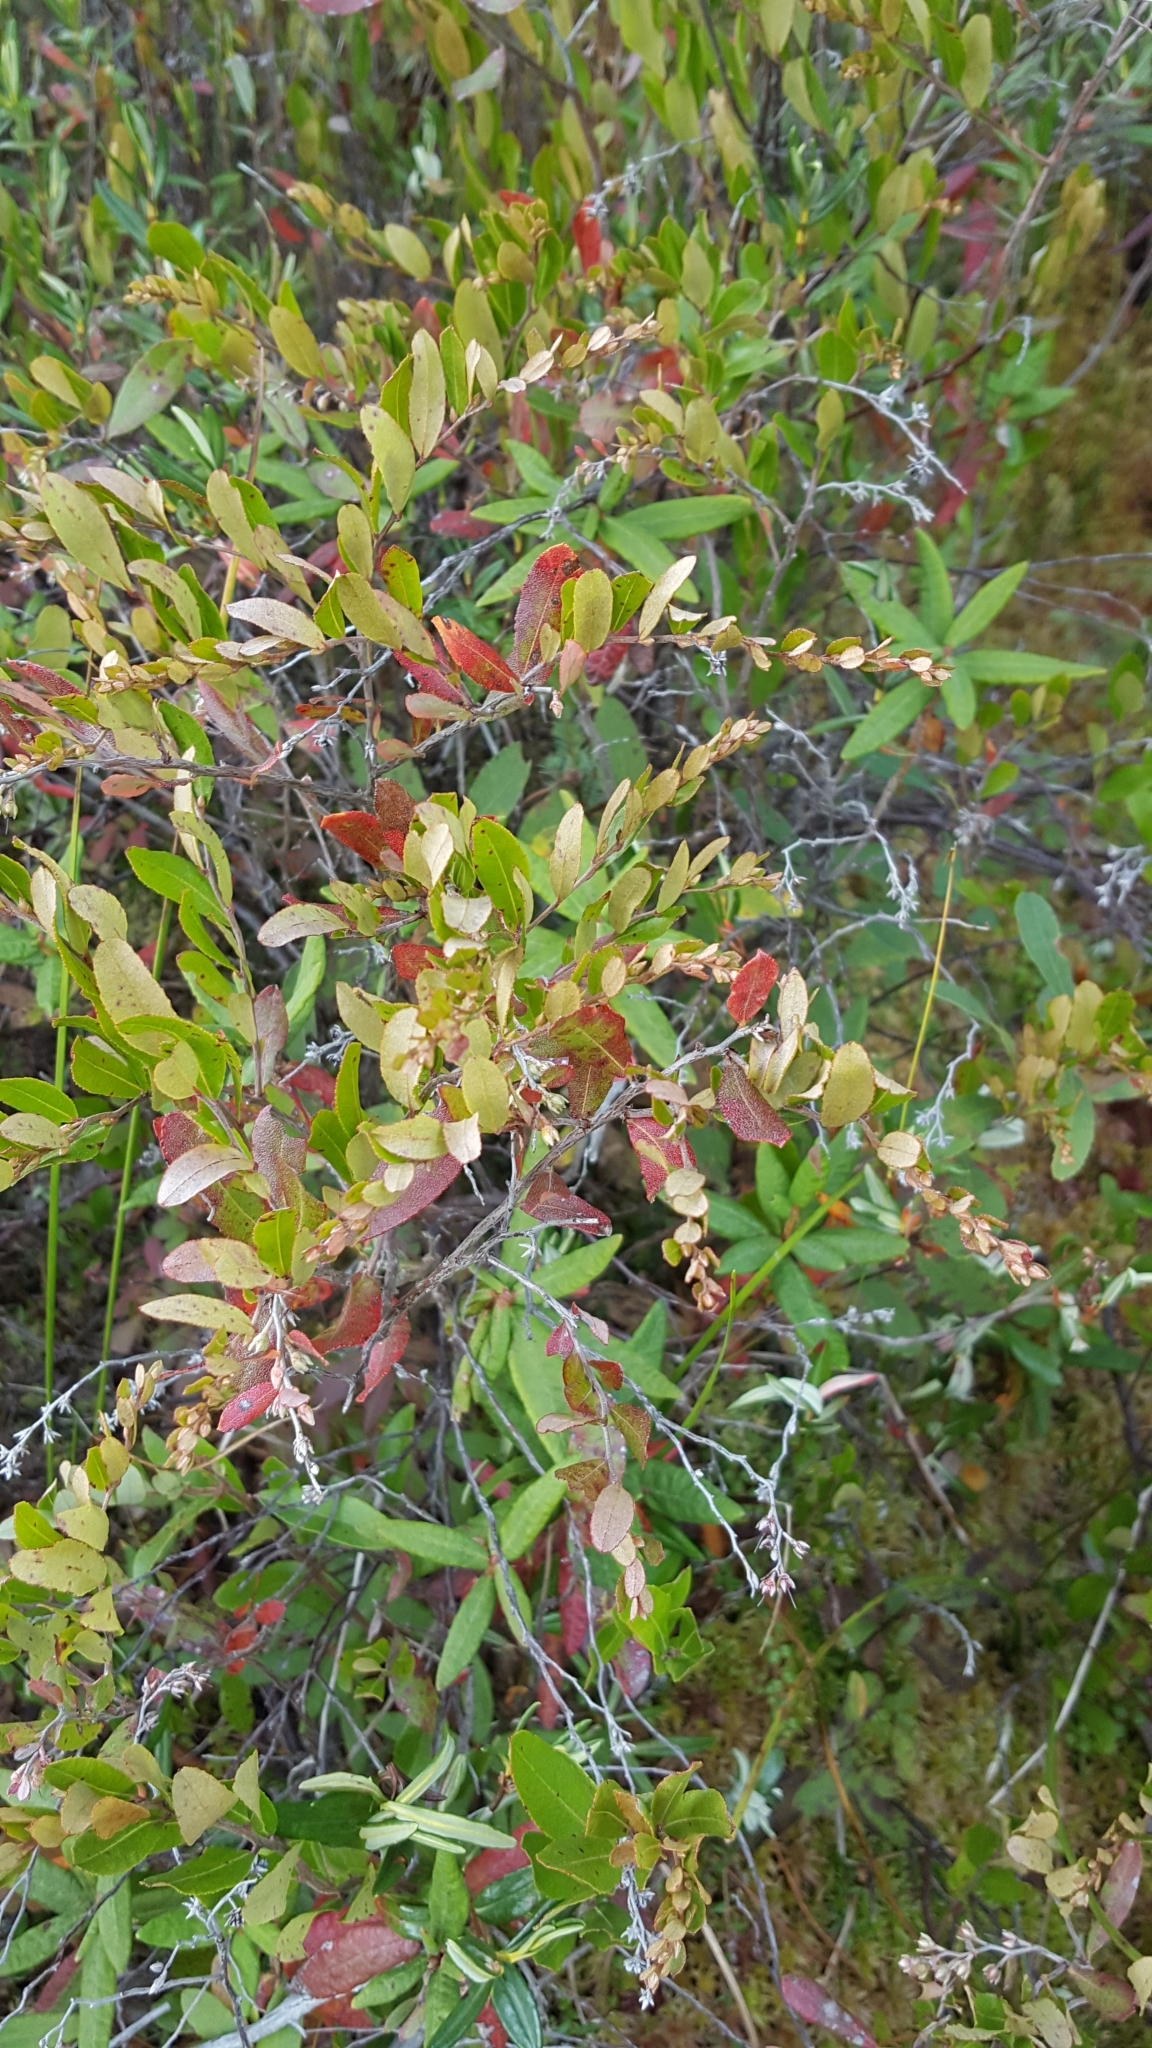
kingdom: Plantae
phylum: Tracheophyta
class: Magnoliopsida
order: Ericales
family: Ericaceae
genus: Chamaedaphne
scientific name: Chamaedaphne calyculata
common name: Leatherleaf
